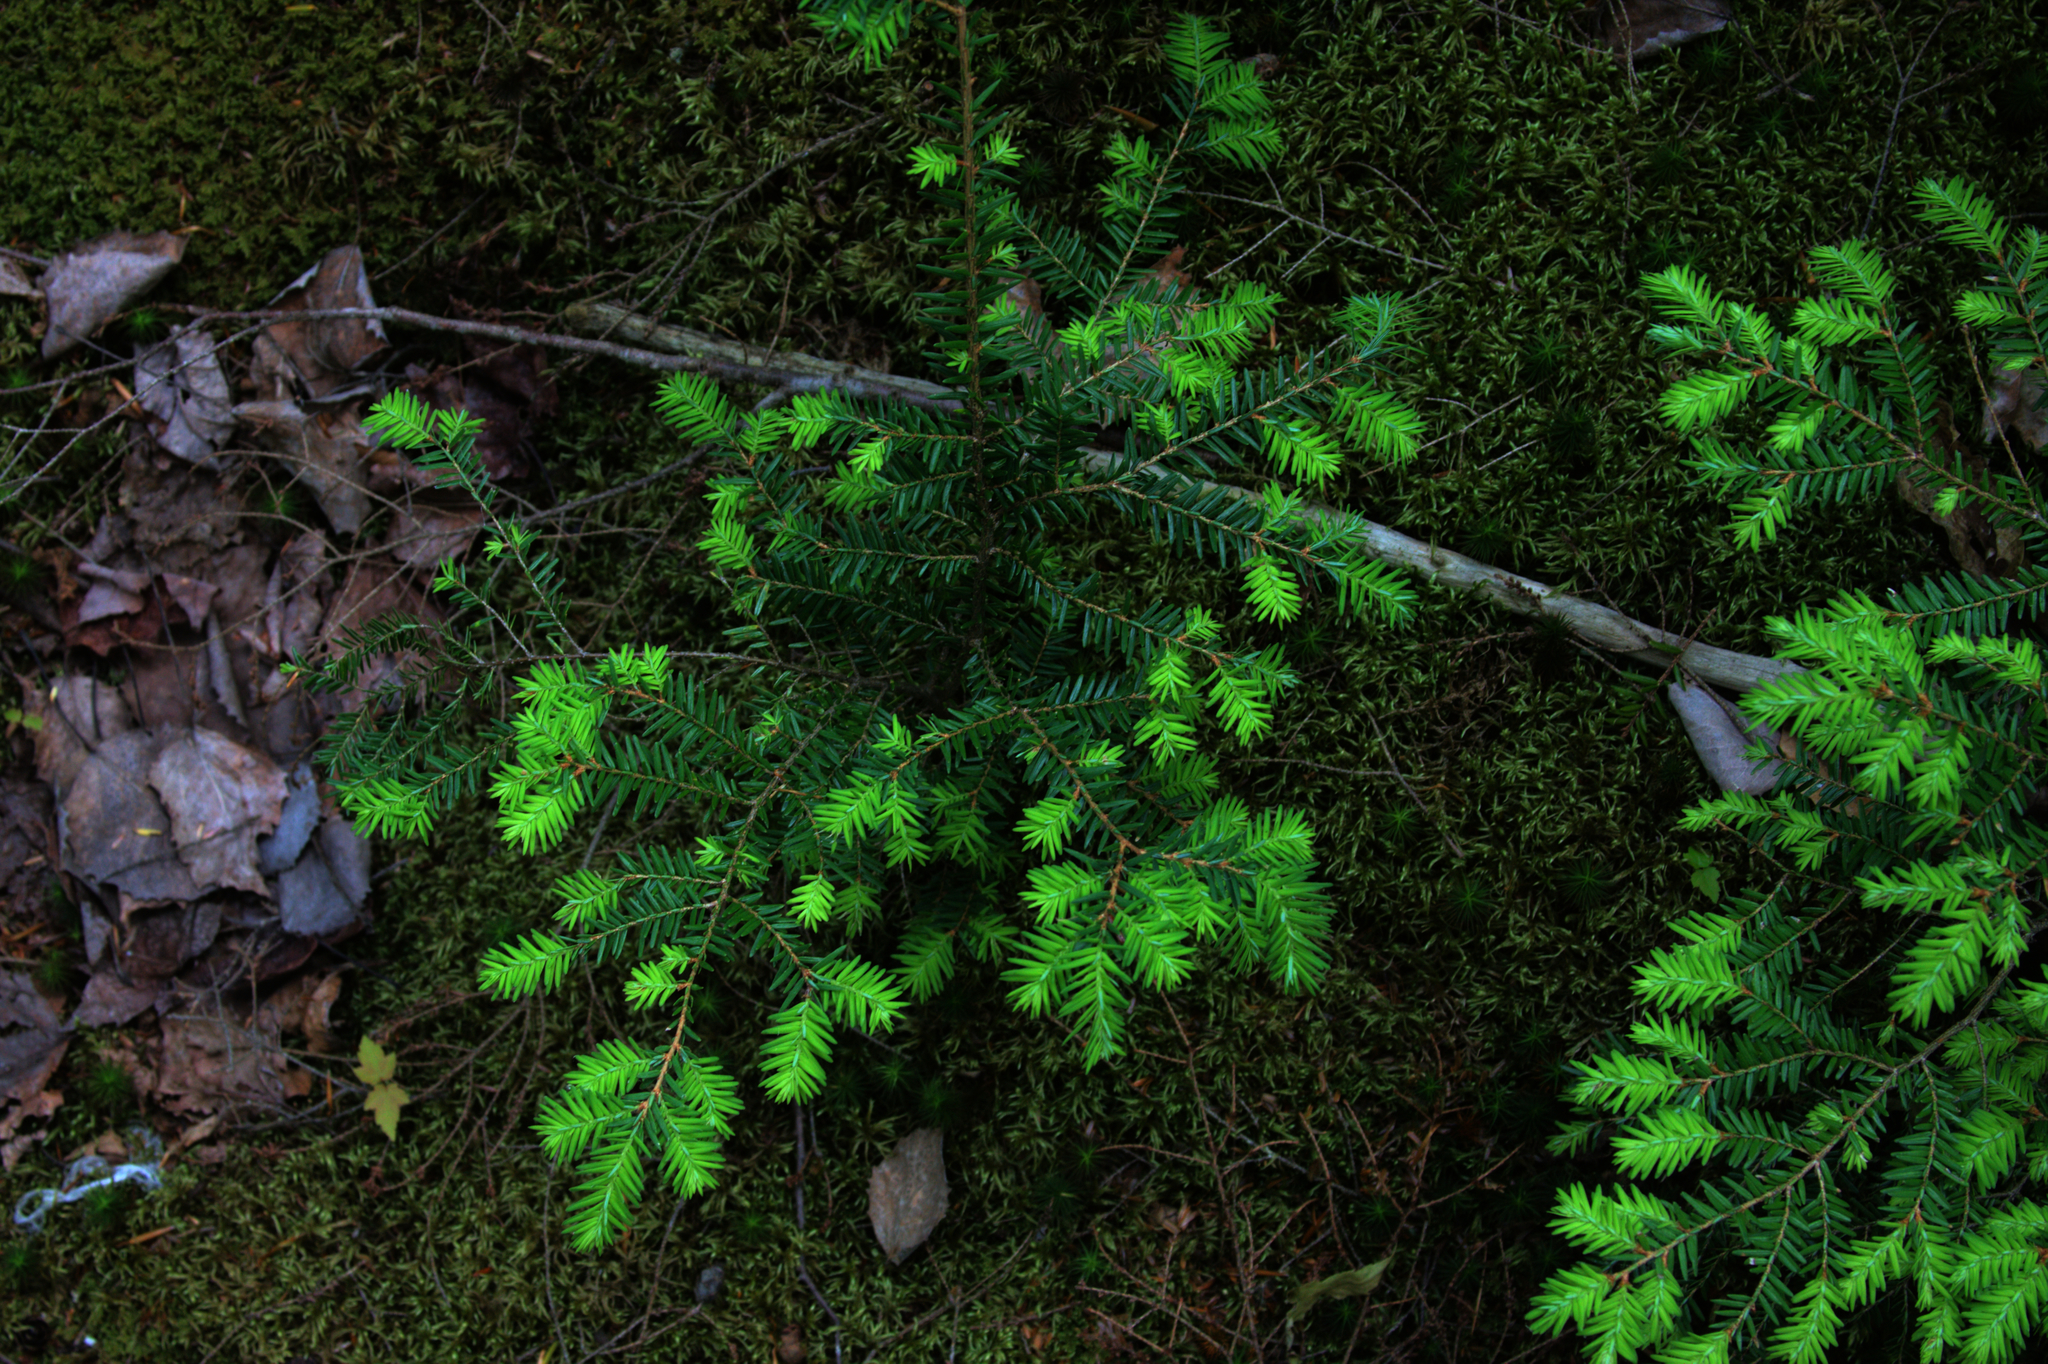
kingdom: Plantae
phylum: Tracheophyta
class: Pinopsida
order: Pinales
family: Pinaceae
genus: Tsuga
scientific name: Tsuga canadensis
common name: Eastern hemlock
